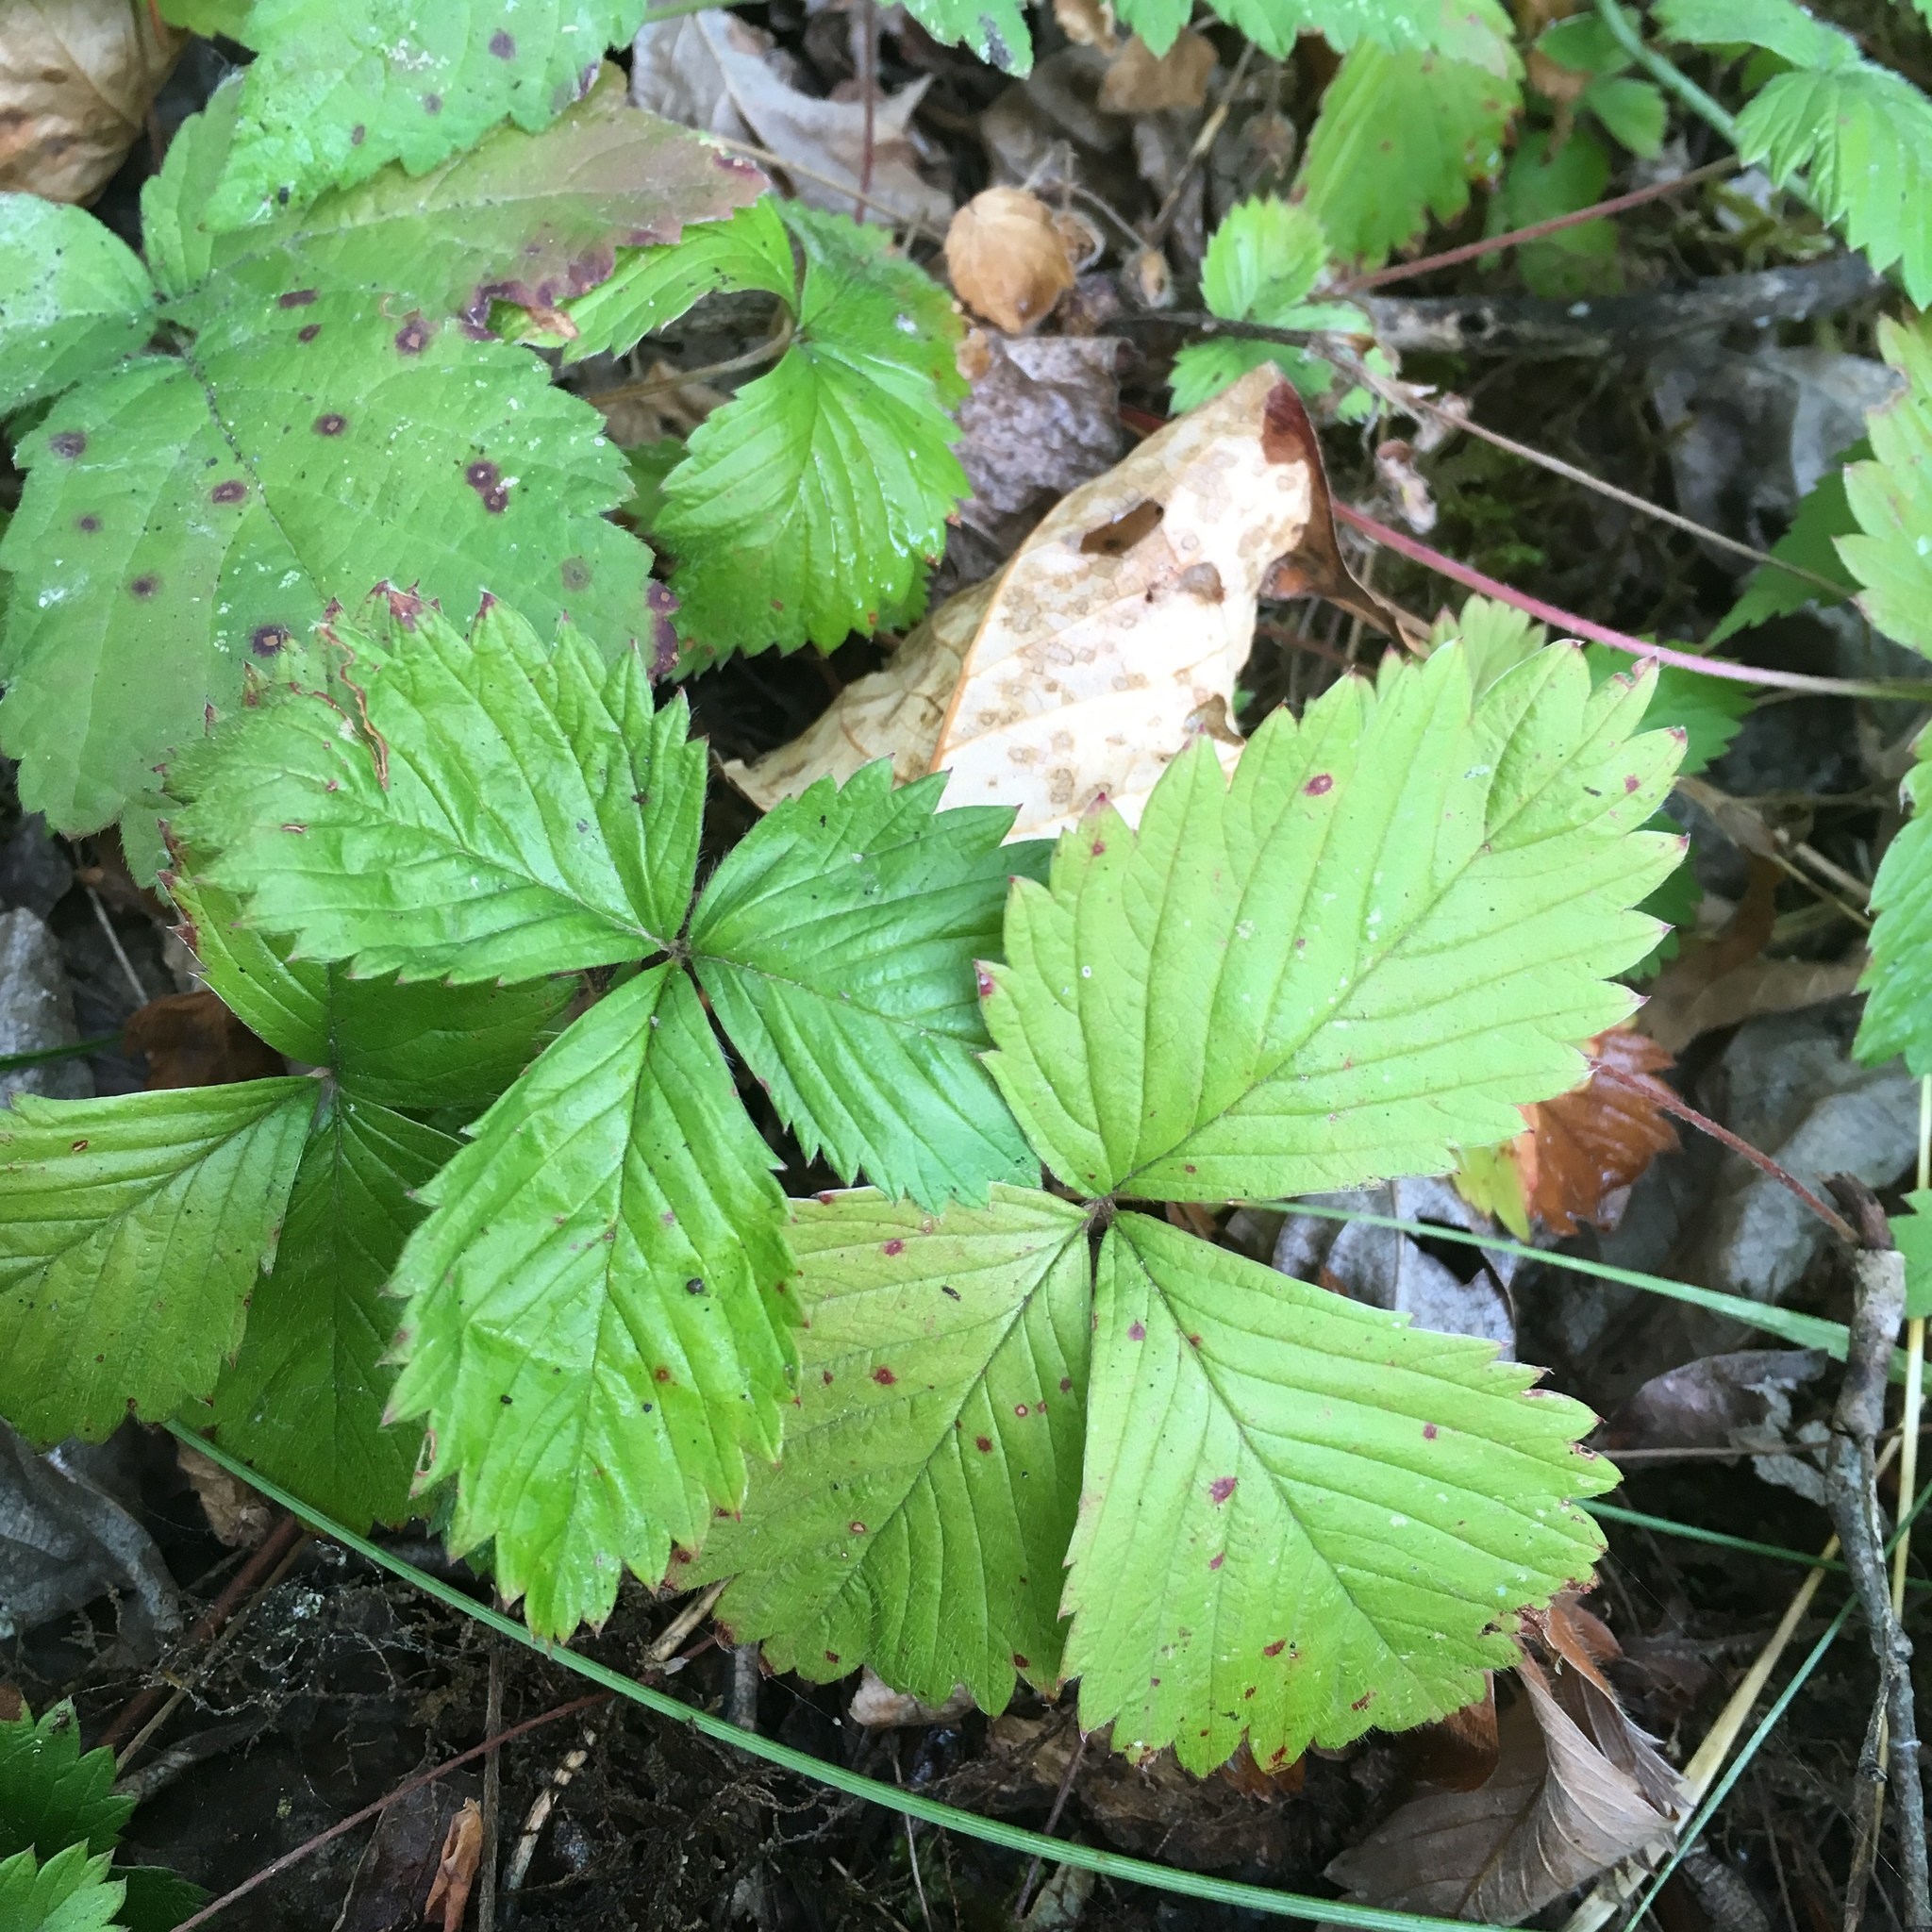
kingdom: Plantae
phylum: Tracheophyta
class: Magnoliopsida
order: Rosales
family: Rosaceae
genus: Fragaria
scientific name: Fragaria vesca
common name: Wild strawberry
